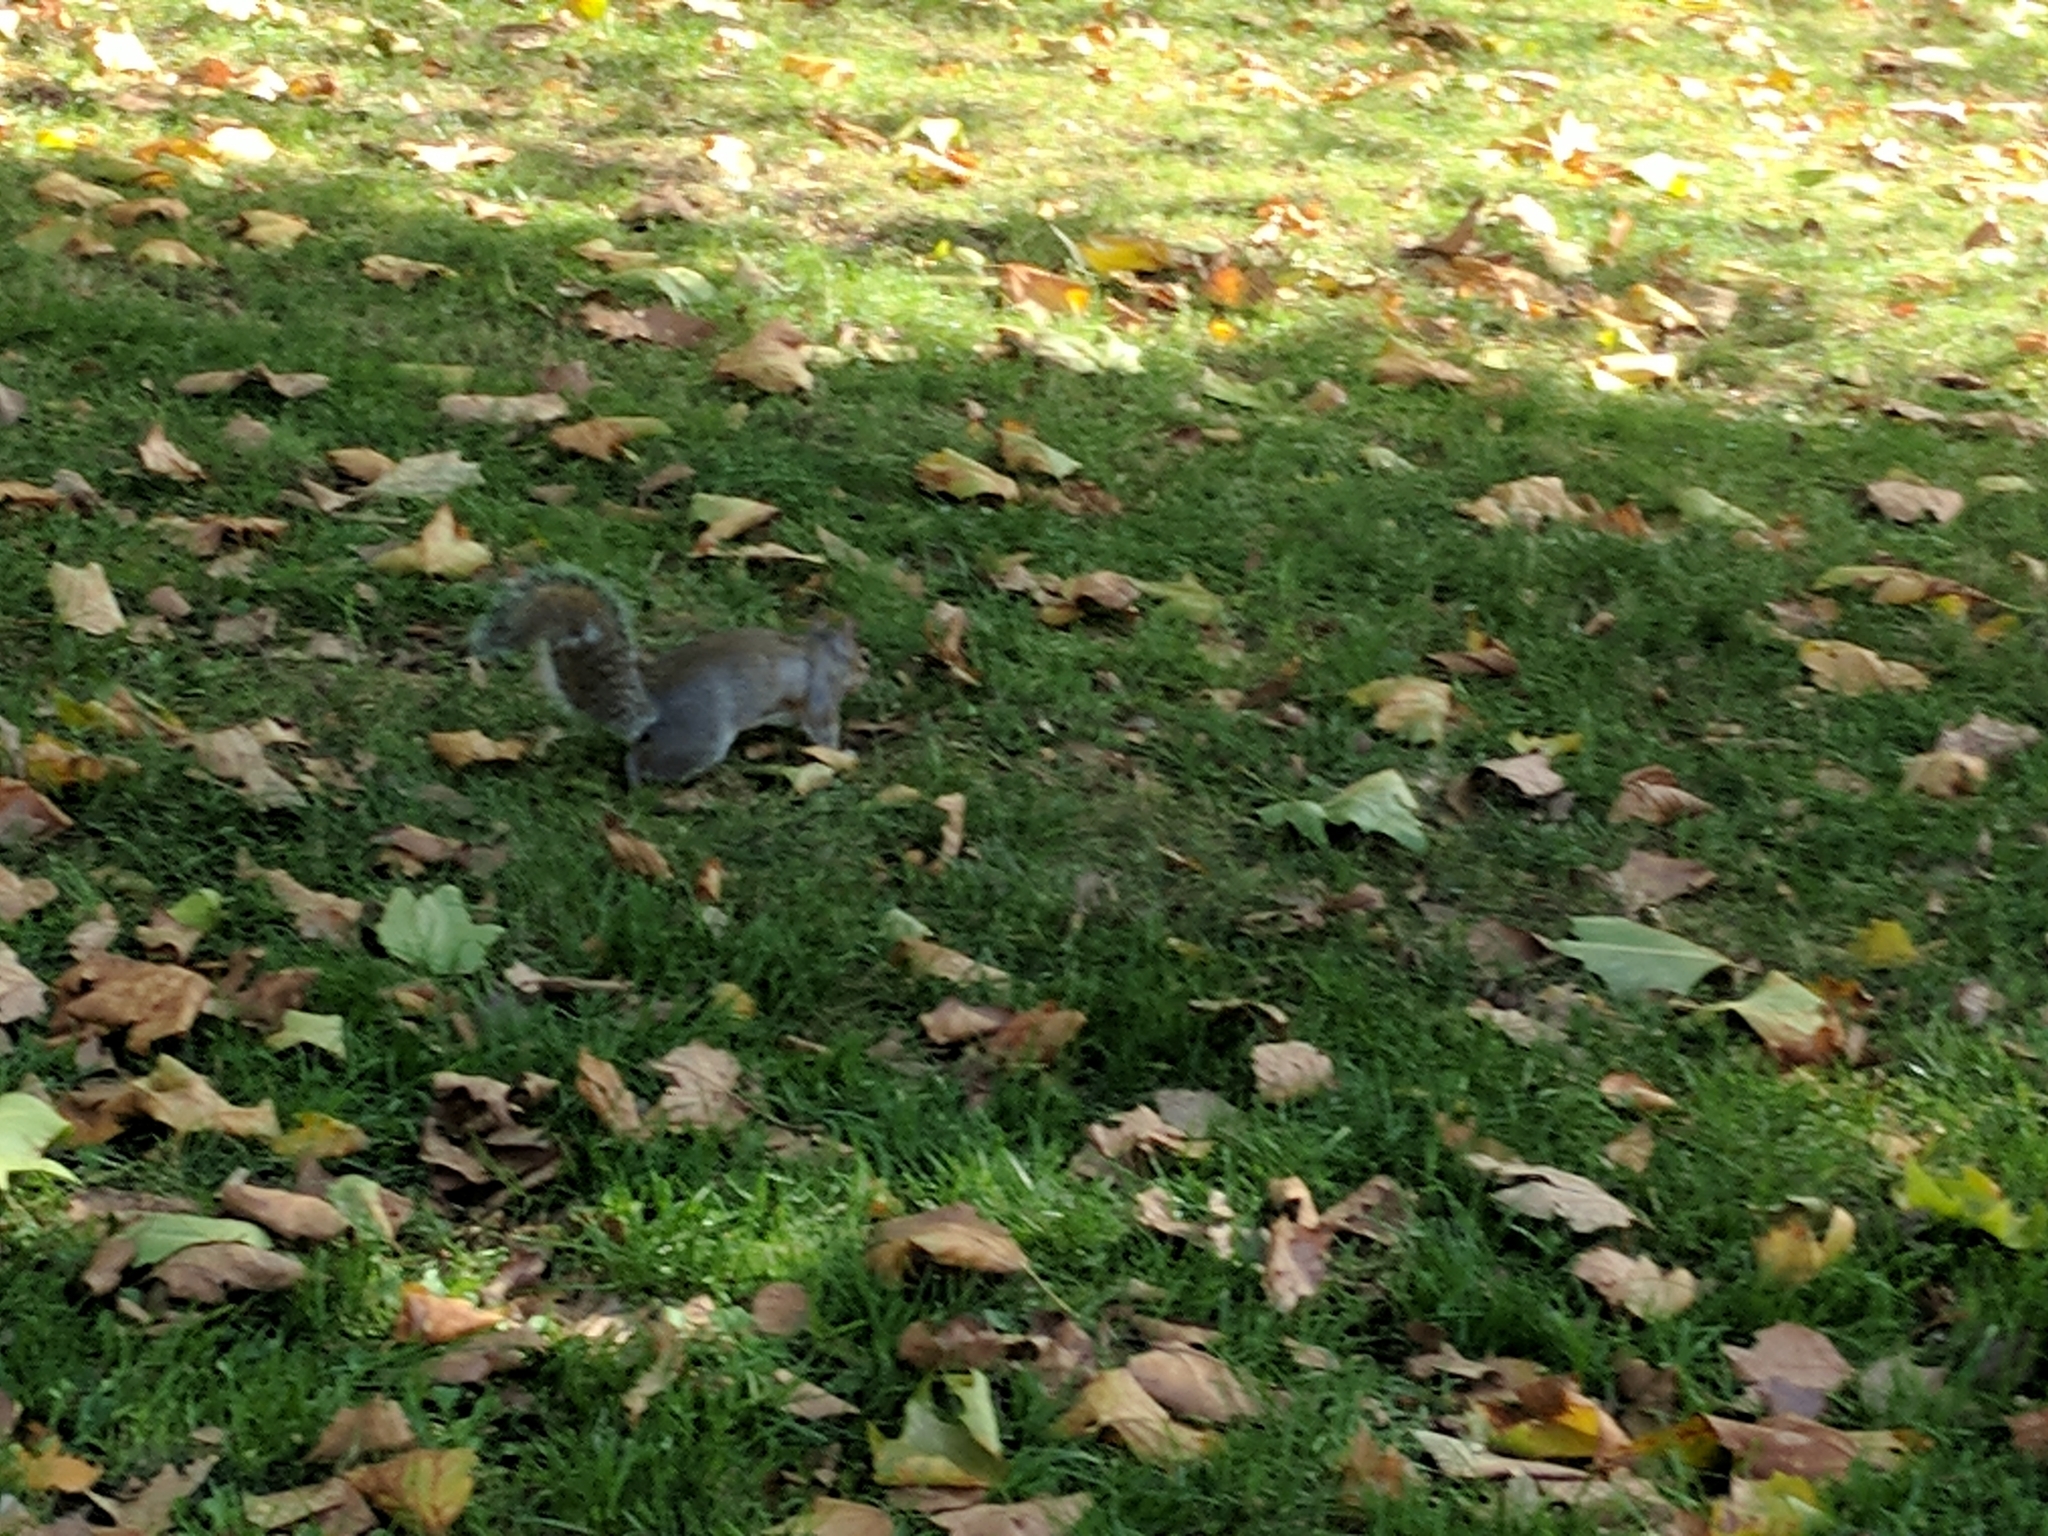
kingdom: Animalia
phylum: Chordata
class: Mammalia
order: Rodentia
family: Sciuridae
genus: Sciurus
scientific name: Sciurus carolinensis
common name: Eastern gray squirrel
